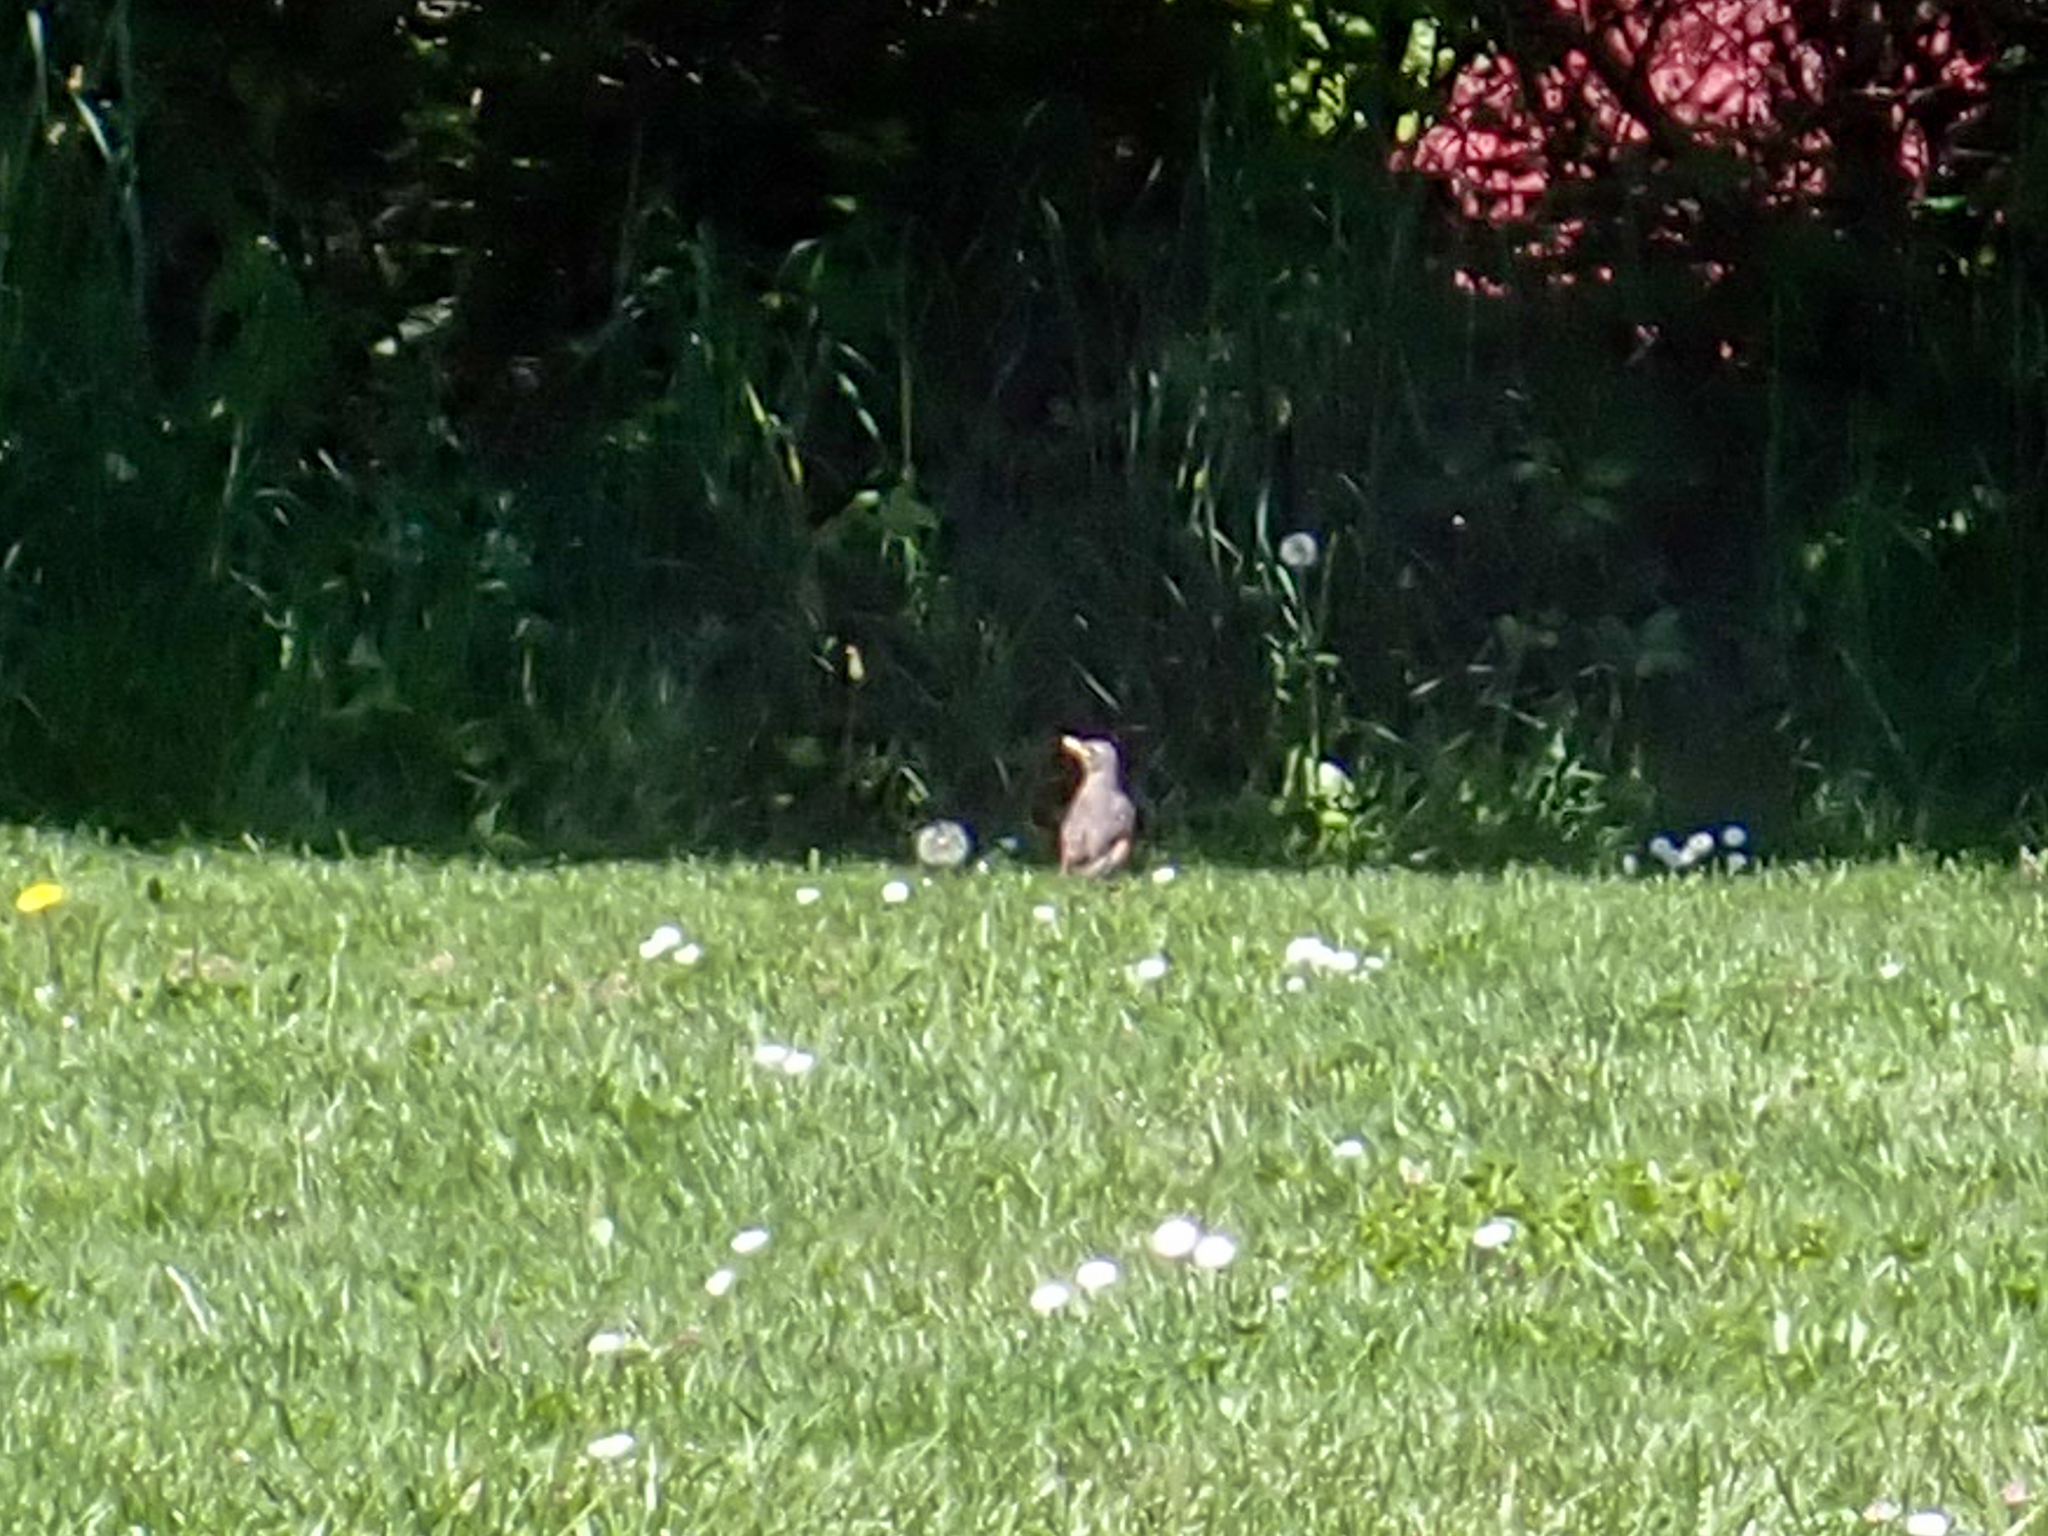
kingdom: Animalia
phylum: Chordata
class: Aves
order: Passeriformes
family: Turdidae
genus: Turdus
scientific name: Turdus migratorius
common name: American robin
